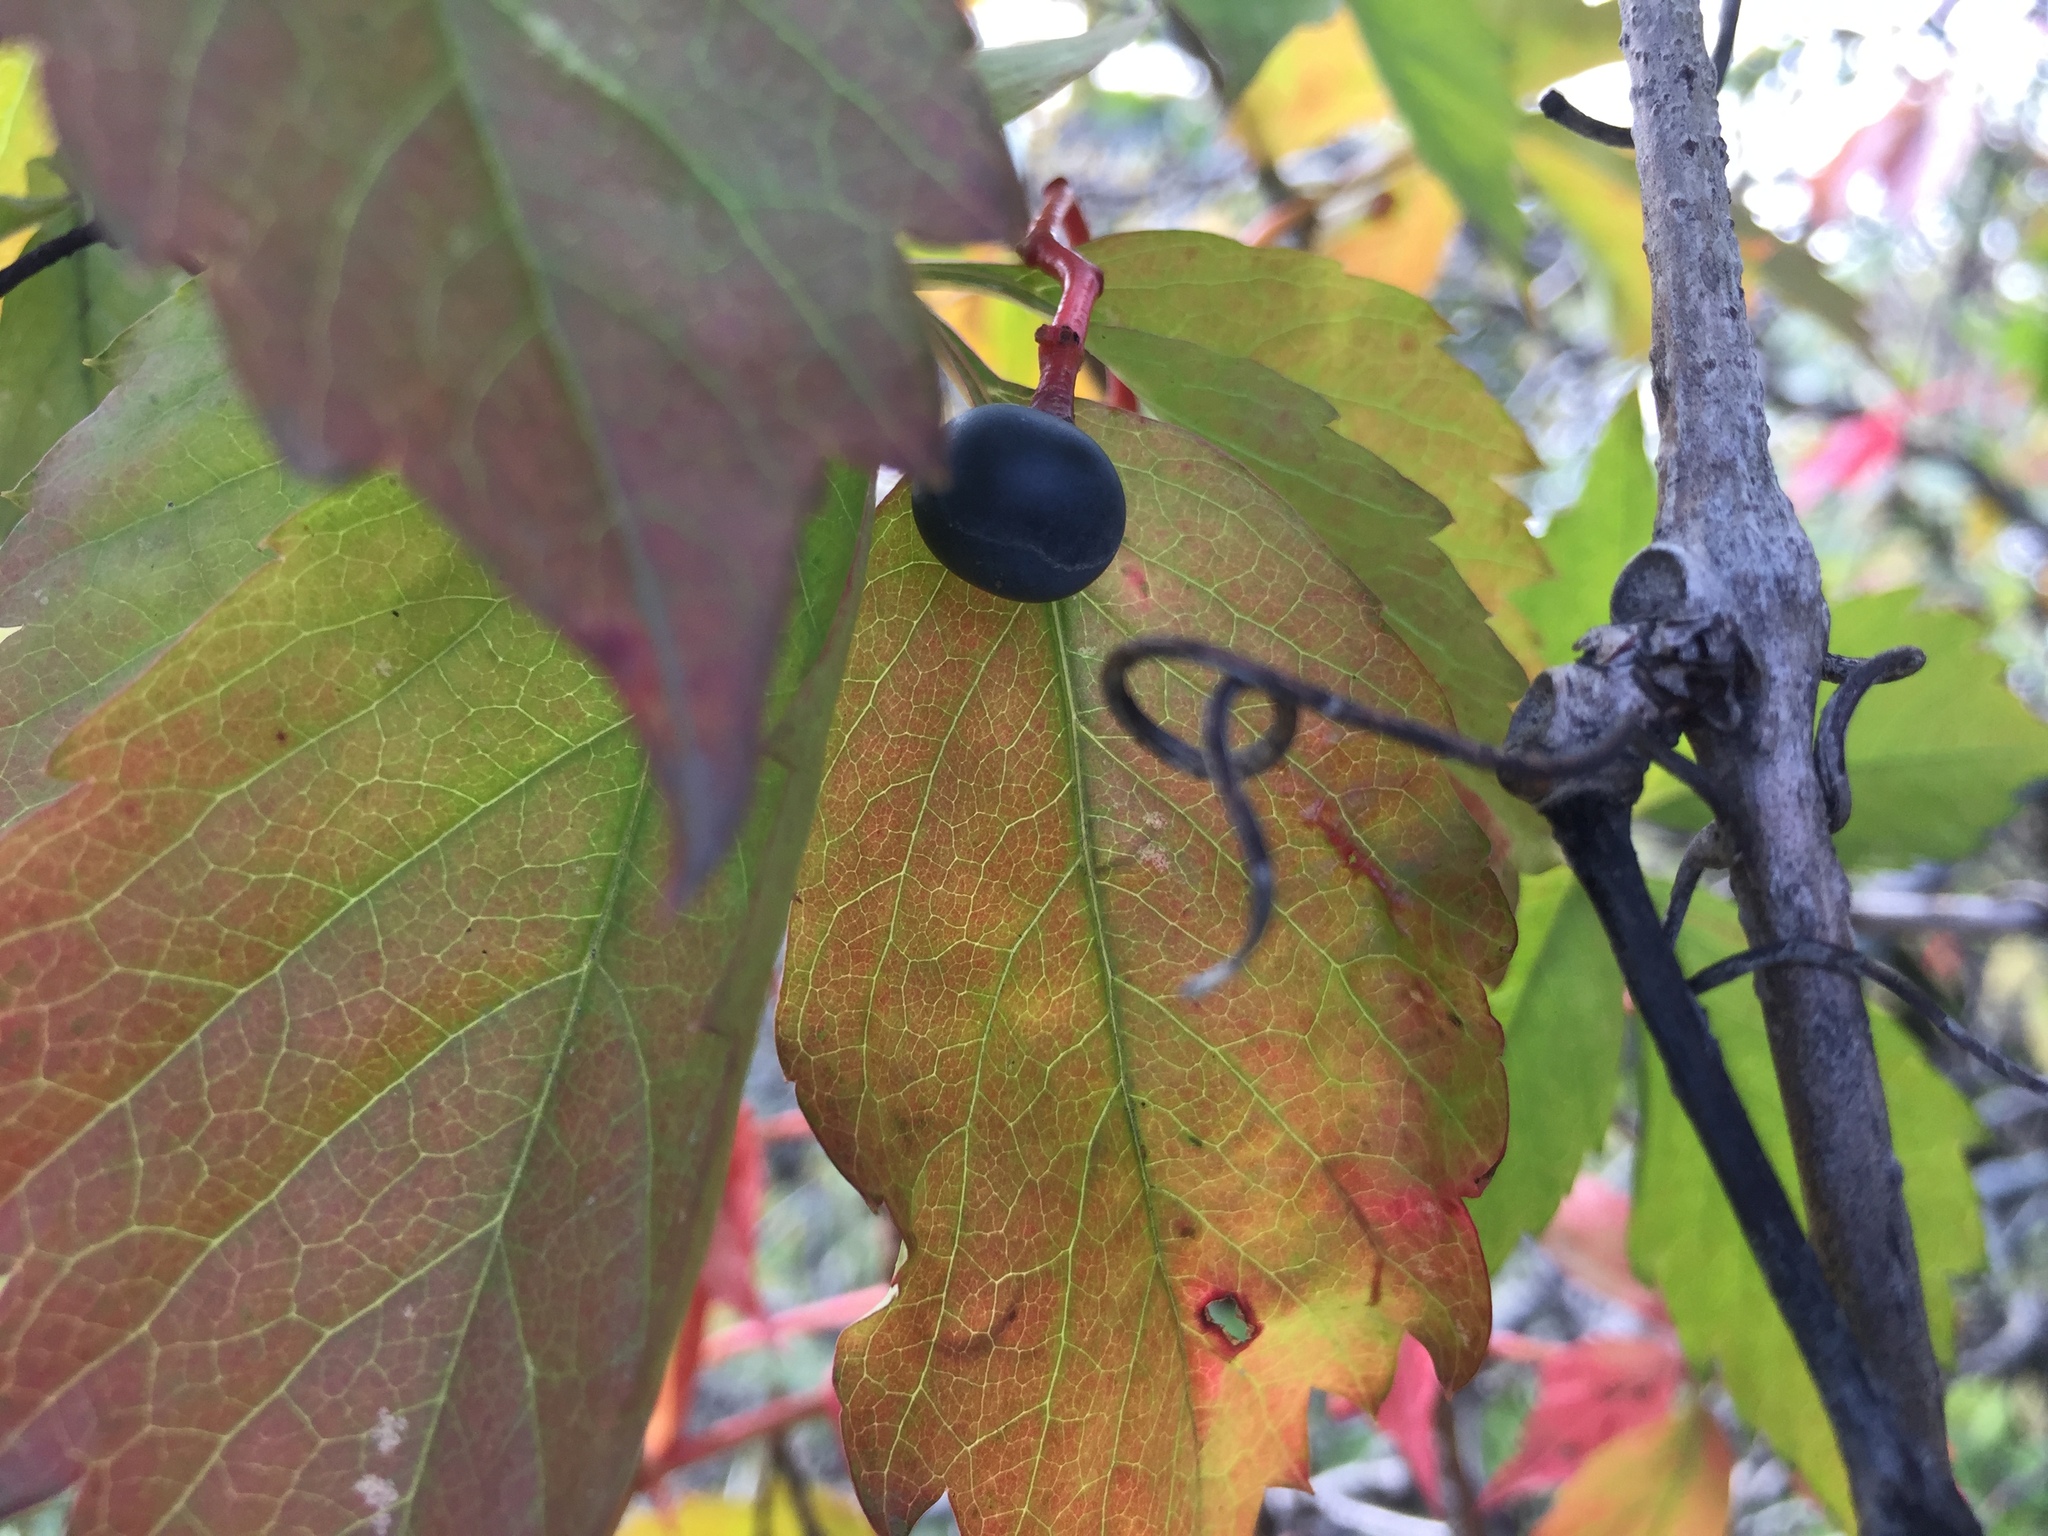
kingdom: Plantae
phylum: Tracheophyta
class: Magnoliopsida
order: Vitales
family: Vitaceae
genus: Parthenocissus
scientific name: Parthenocissus inserta
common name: False virginia-creeper
